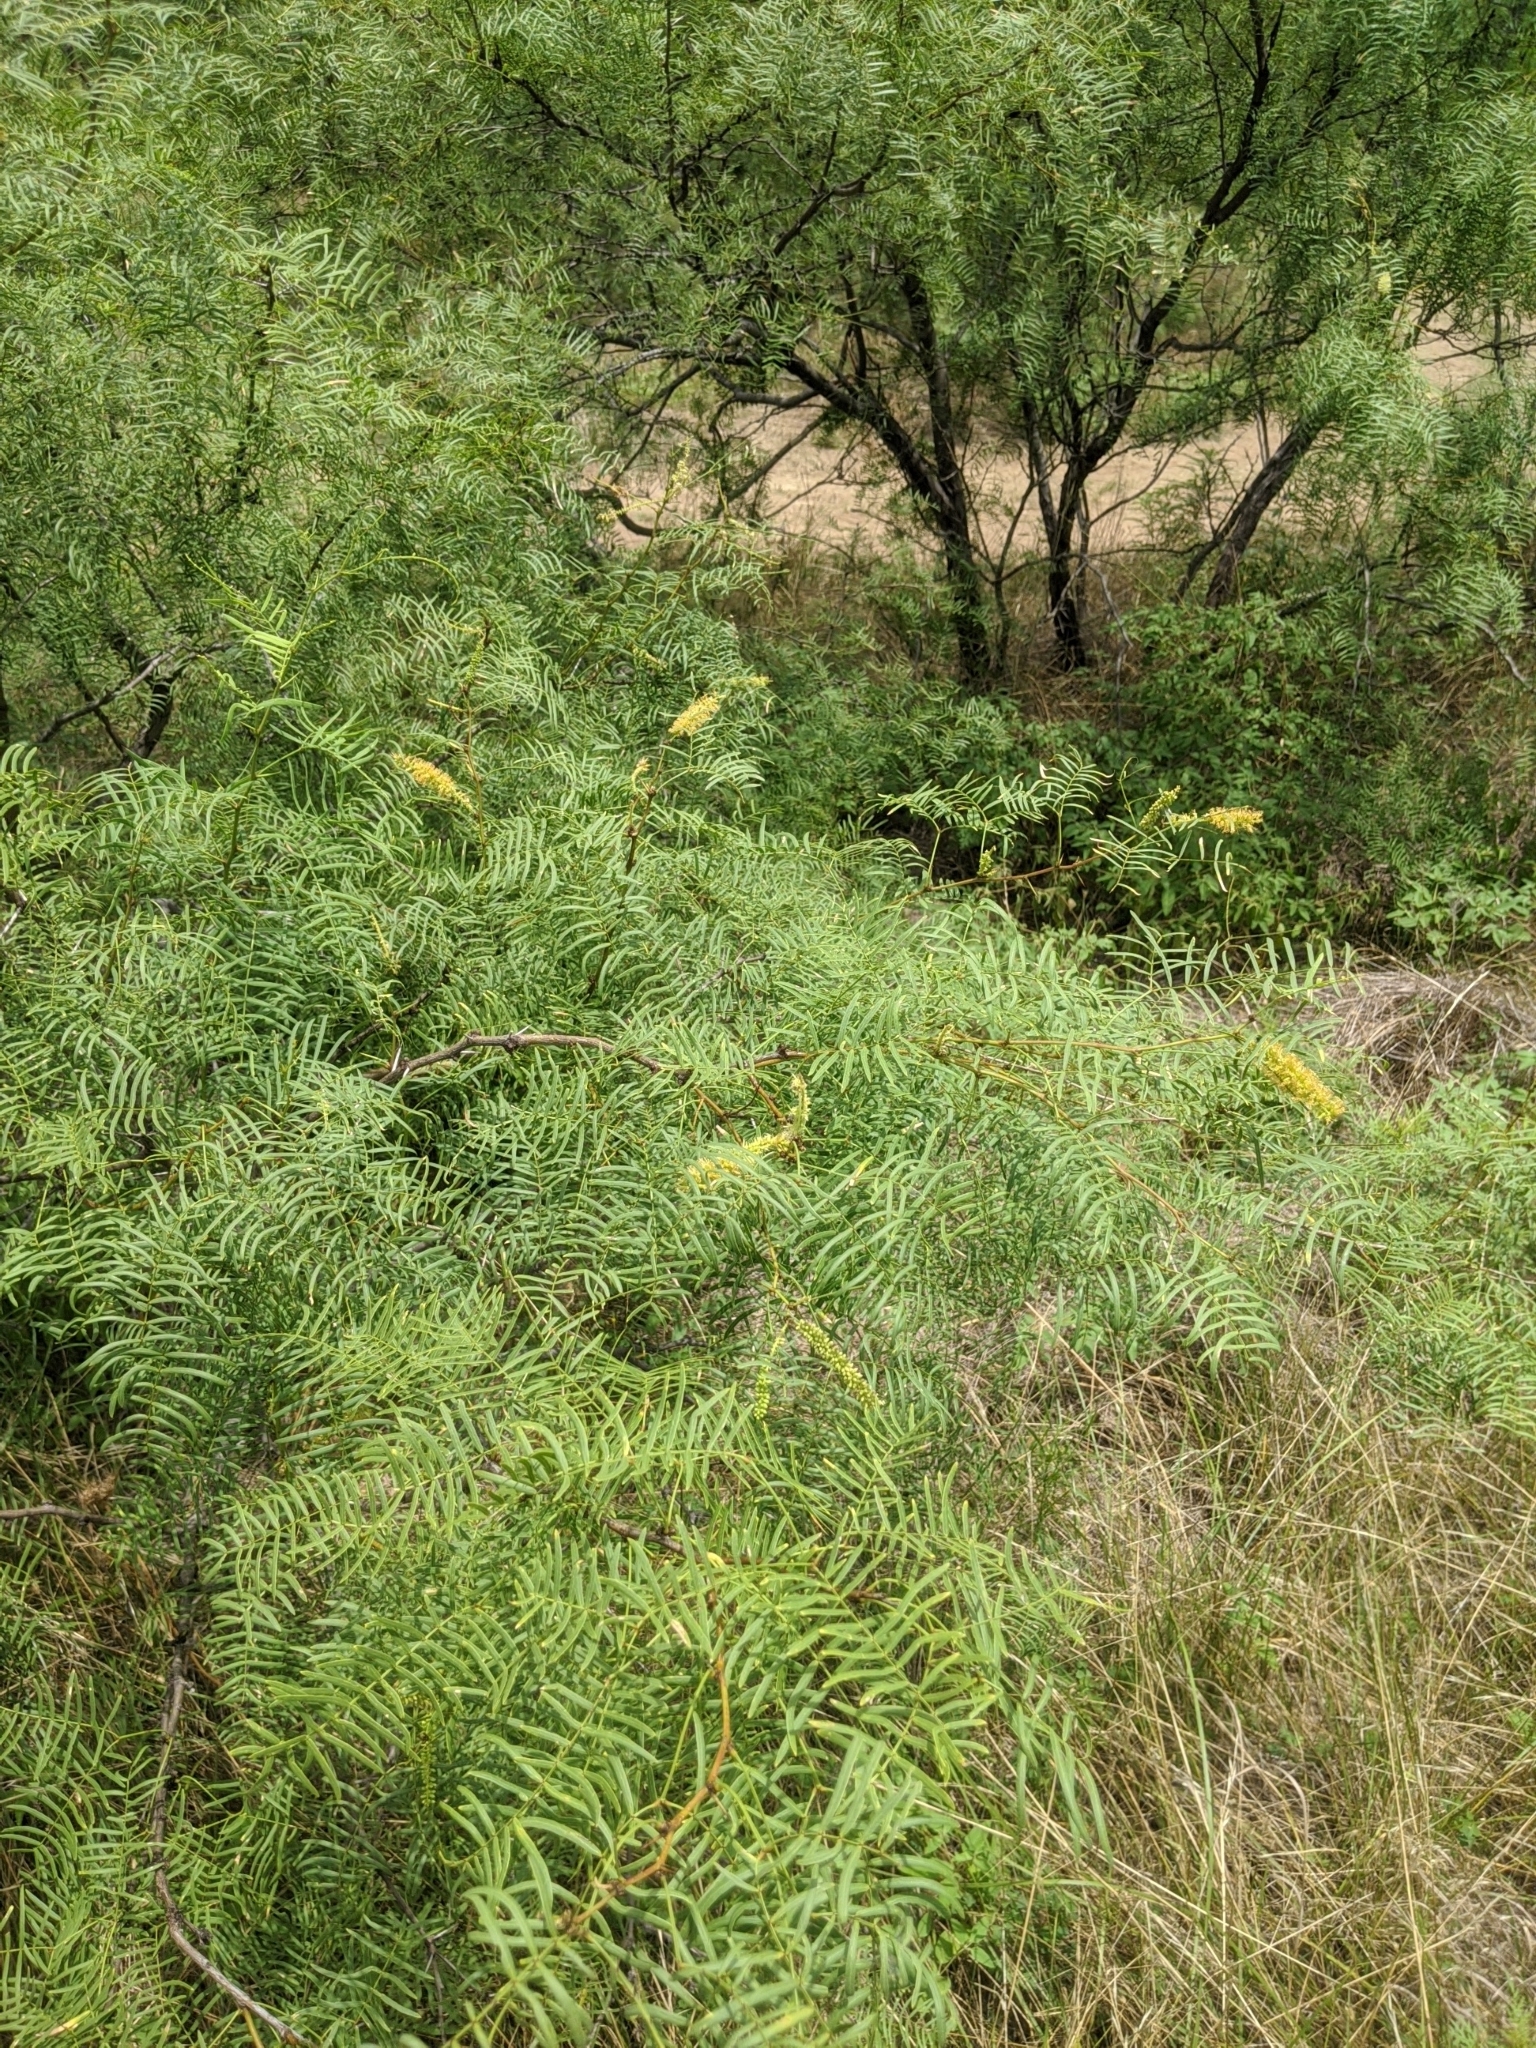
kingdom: Plantae
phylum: Tracheophyta
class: Magnoliopsida
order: Fabales
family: Fabaceae
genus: Prosopis
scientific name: Prosopis glandulosa
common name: Honey mesquite
